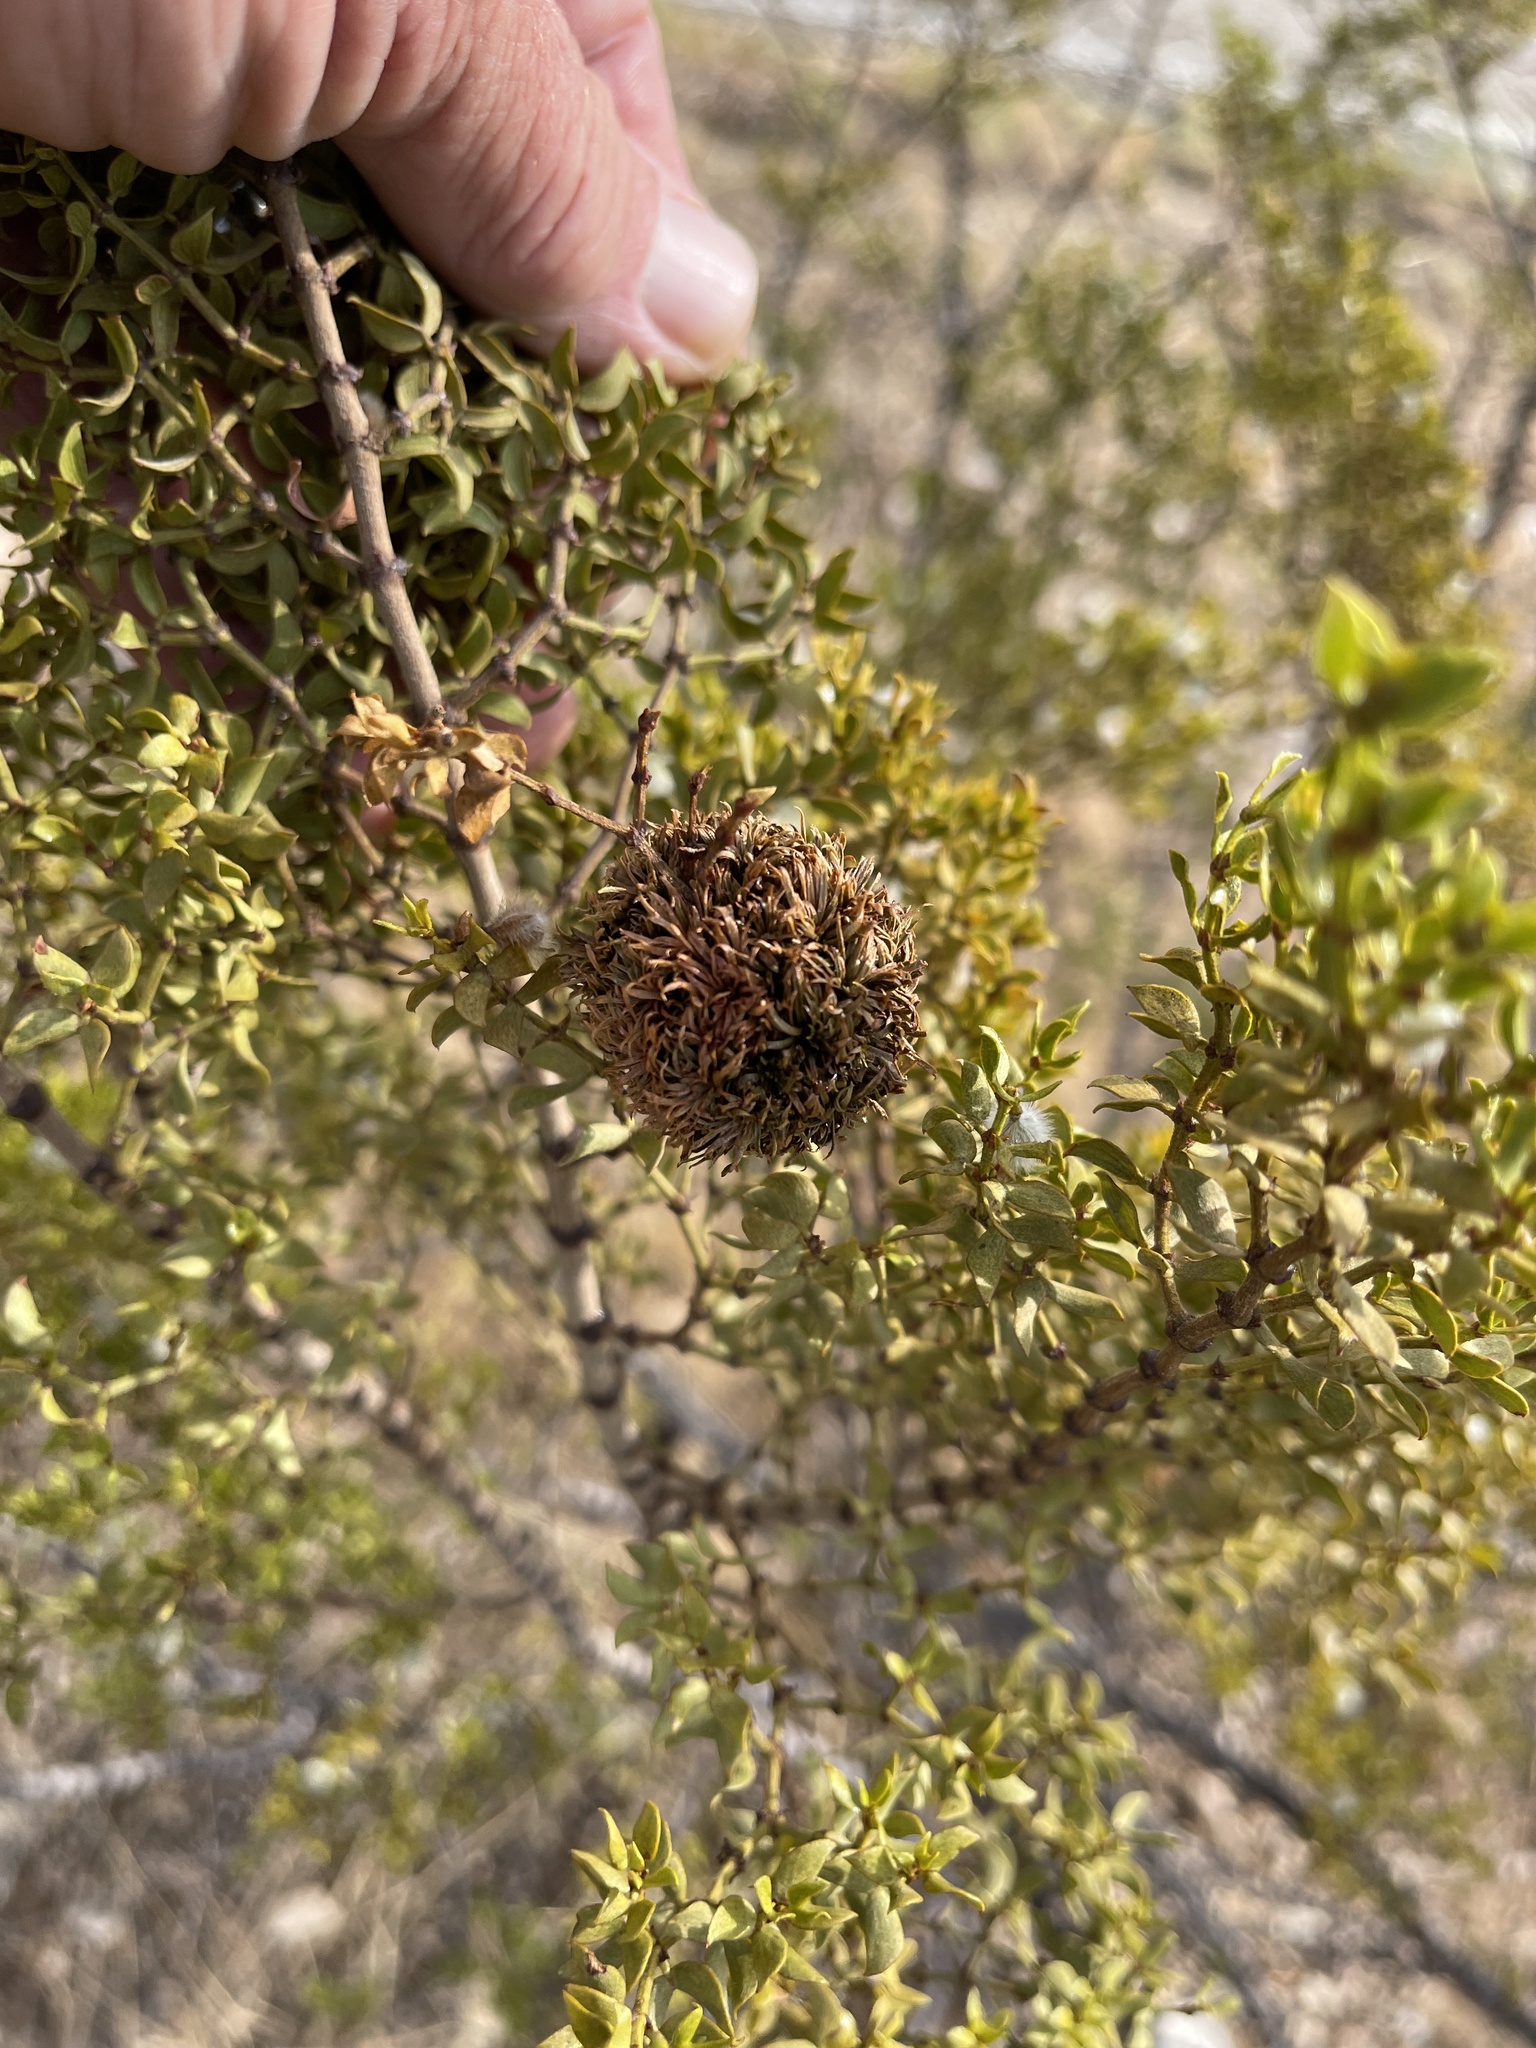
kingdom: Animalia
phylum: Arthropoda
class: Insecta
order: Diptera
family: Cecidomyiidae
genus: Asphondylia
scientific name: Asphondylia auripila
